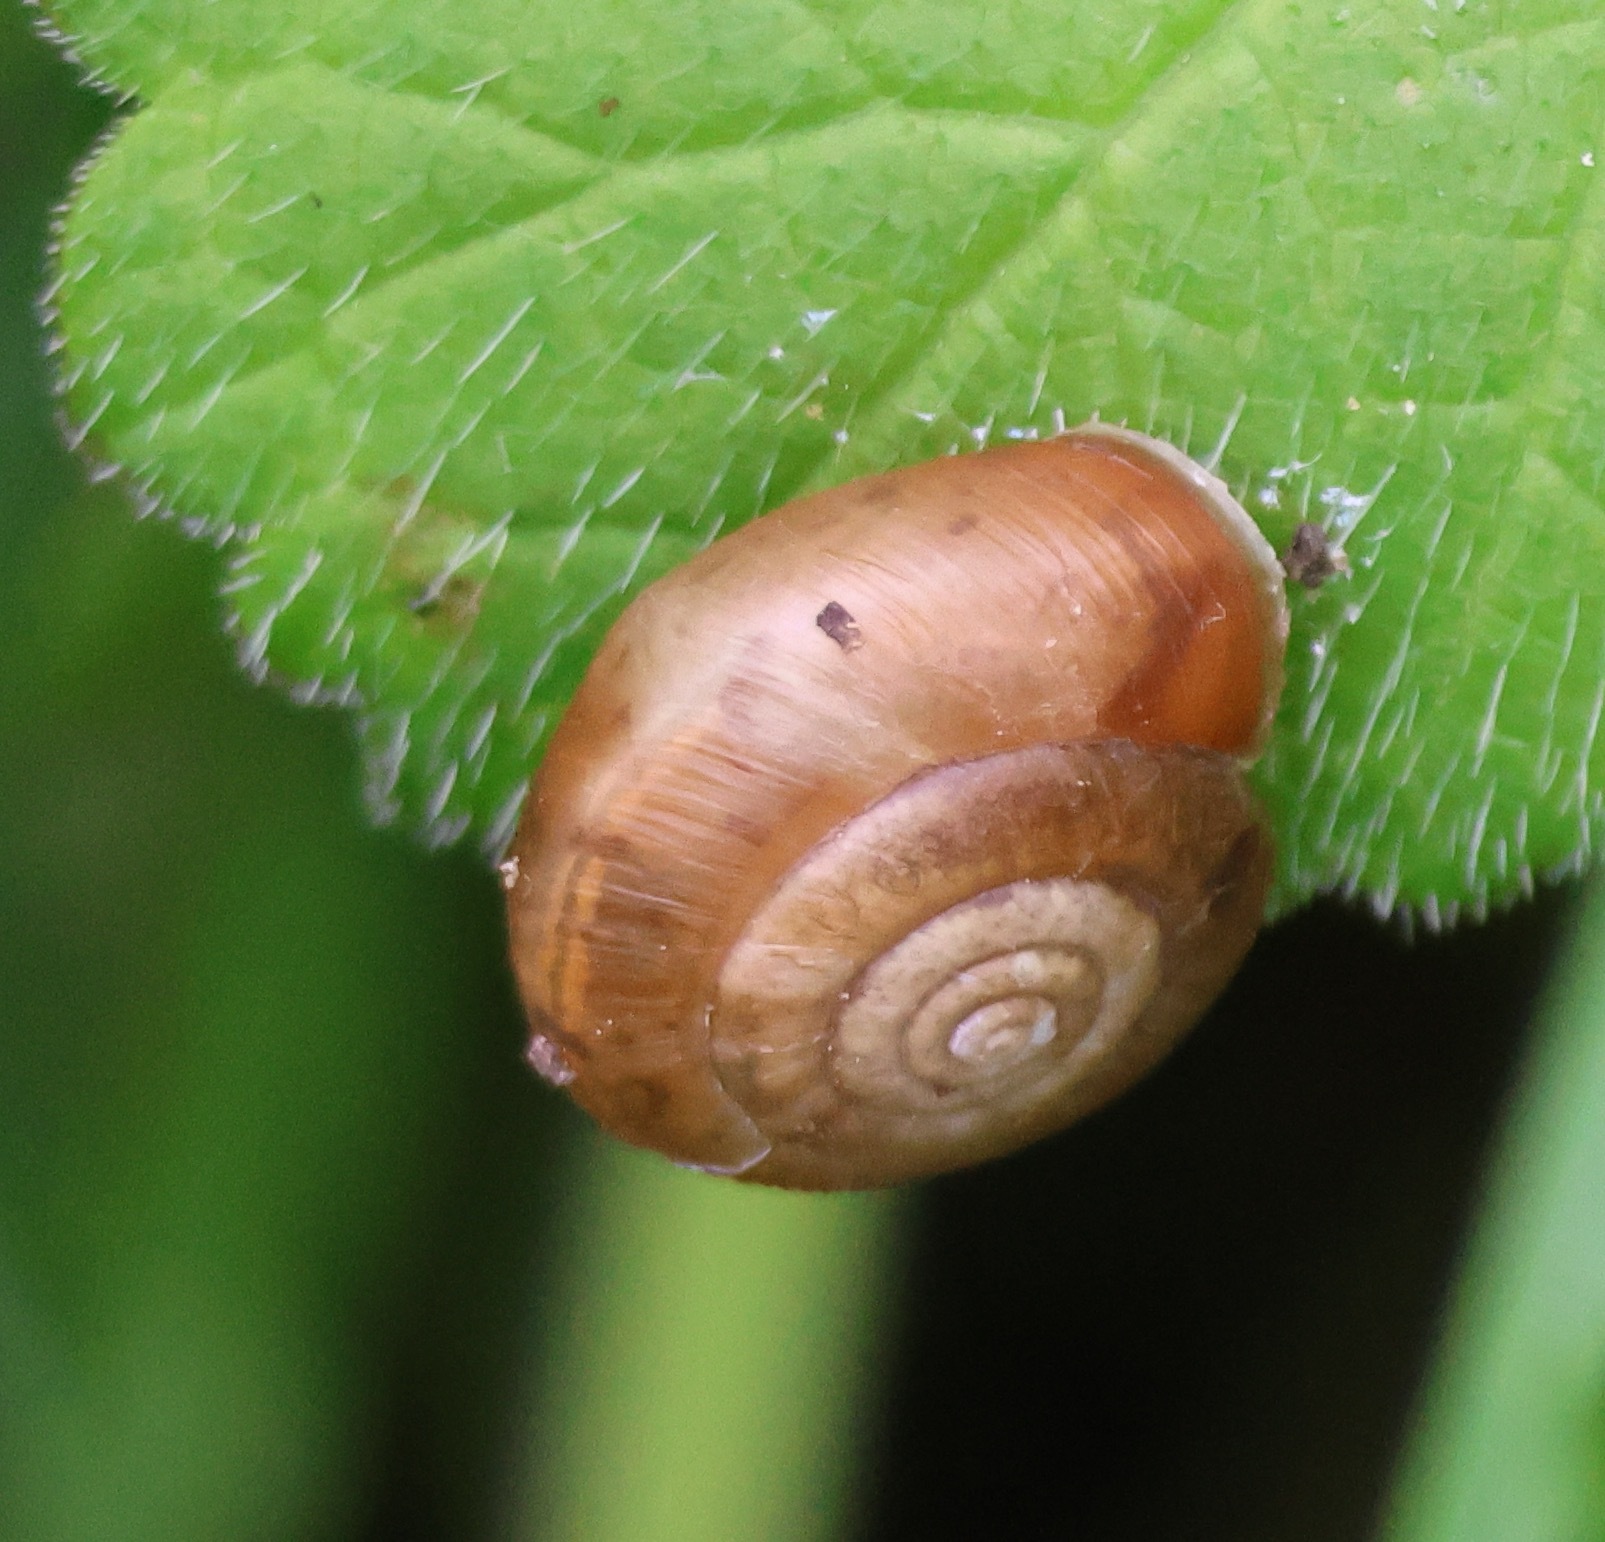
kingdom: Animalia
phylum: Mollusca
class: Gastropoda
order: Stylommatophora
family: Hygromiidae
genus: Trochulus
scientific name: Trochulus striolatus
